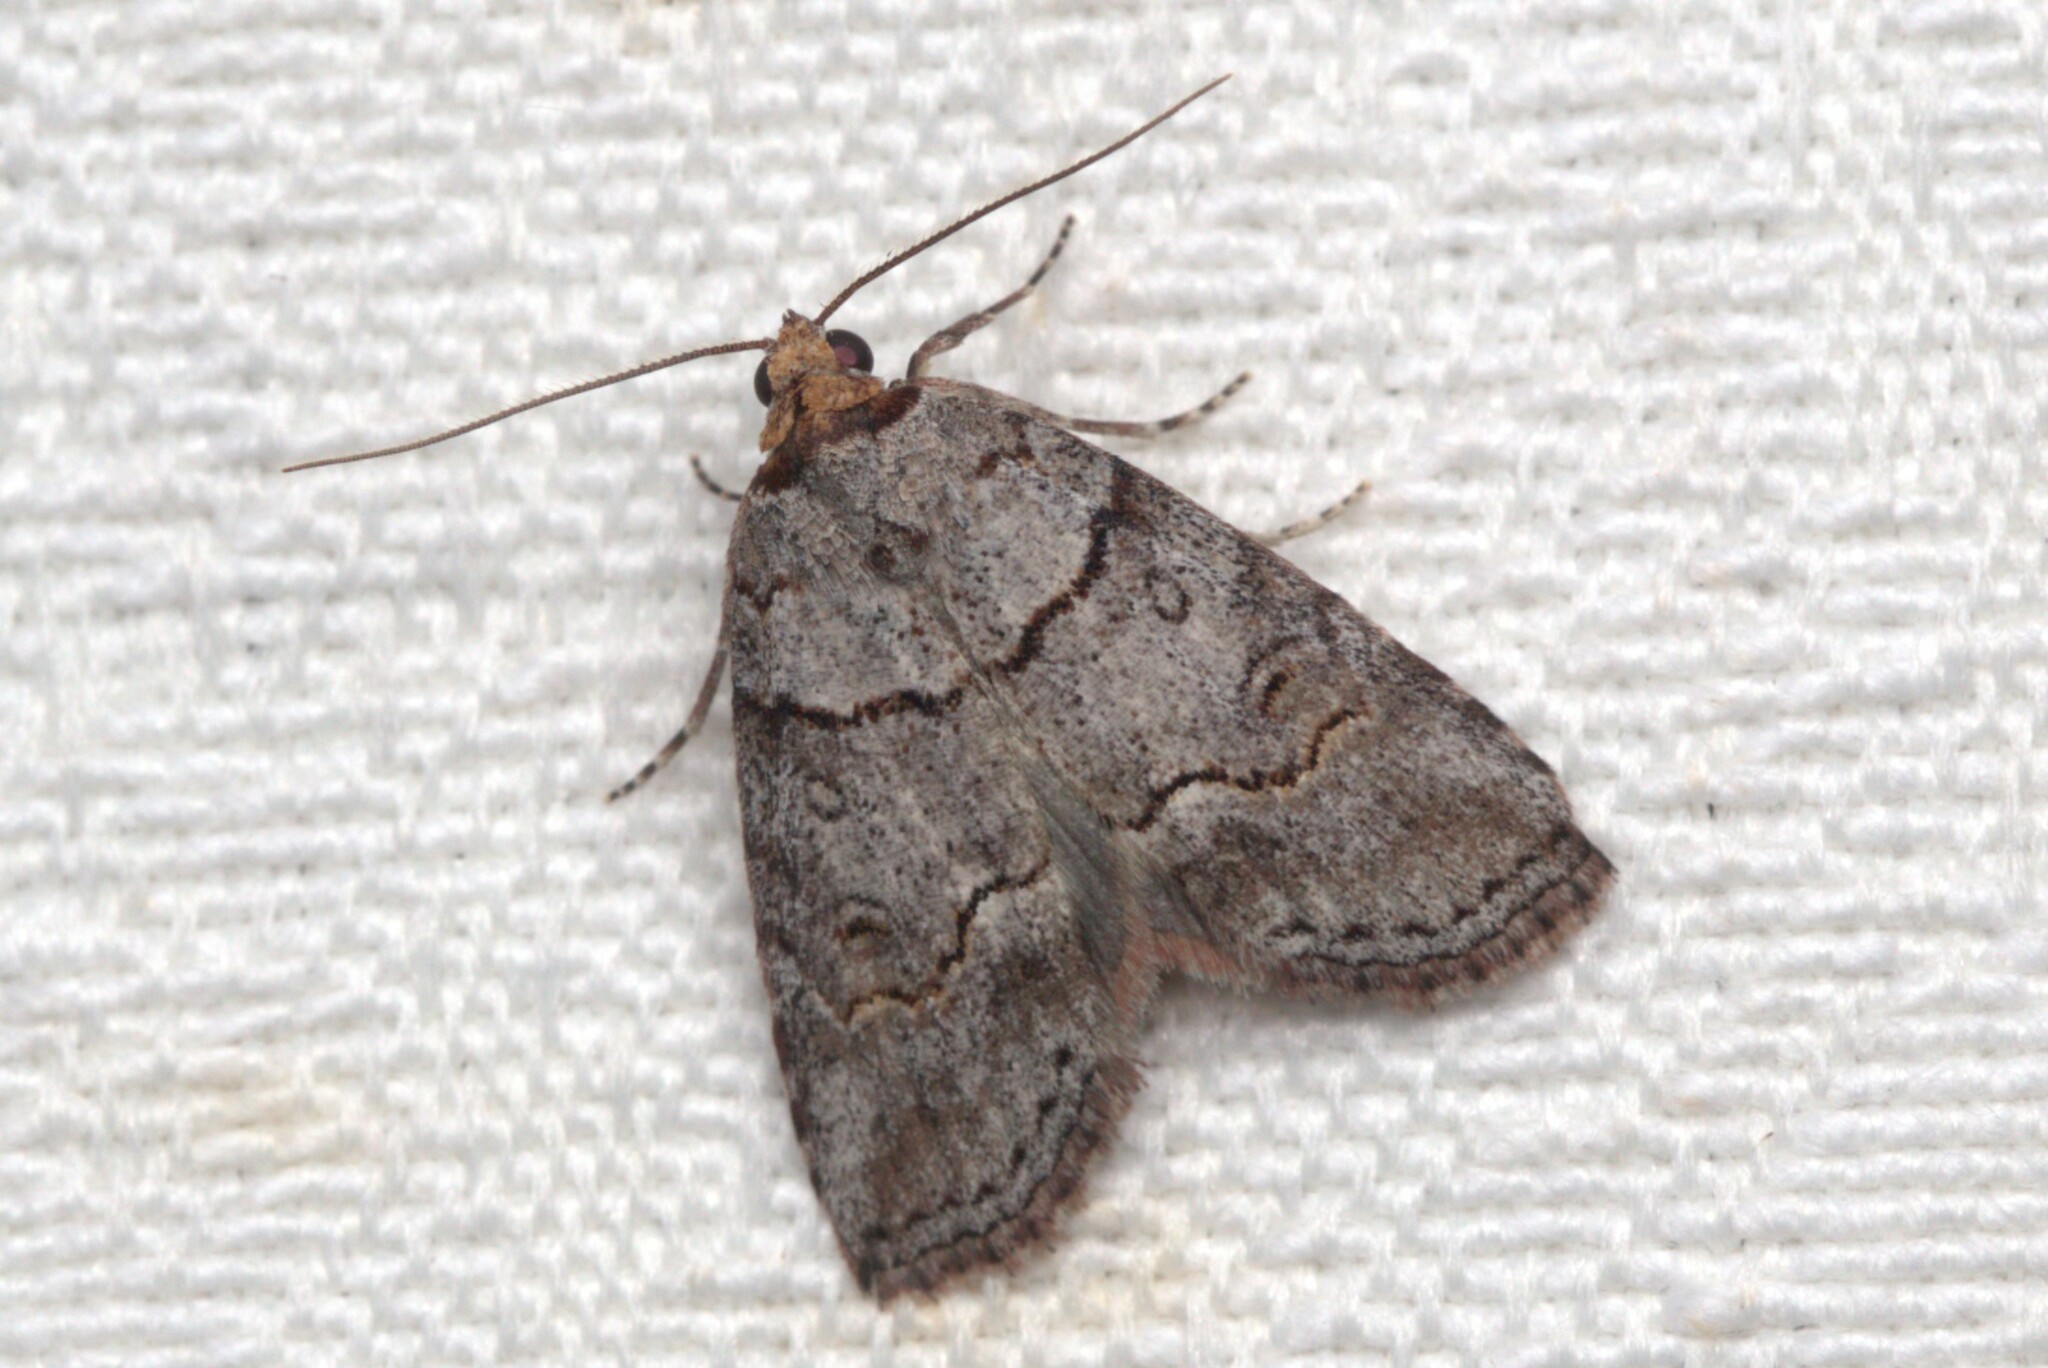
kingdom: Animalia
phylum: Arthropoda
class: Insecta
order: Lepidoptera
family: Nolidae
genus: Calathusa
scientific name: Calathusa hypotherma
